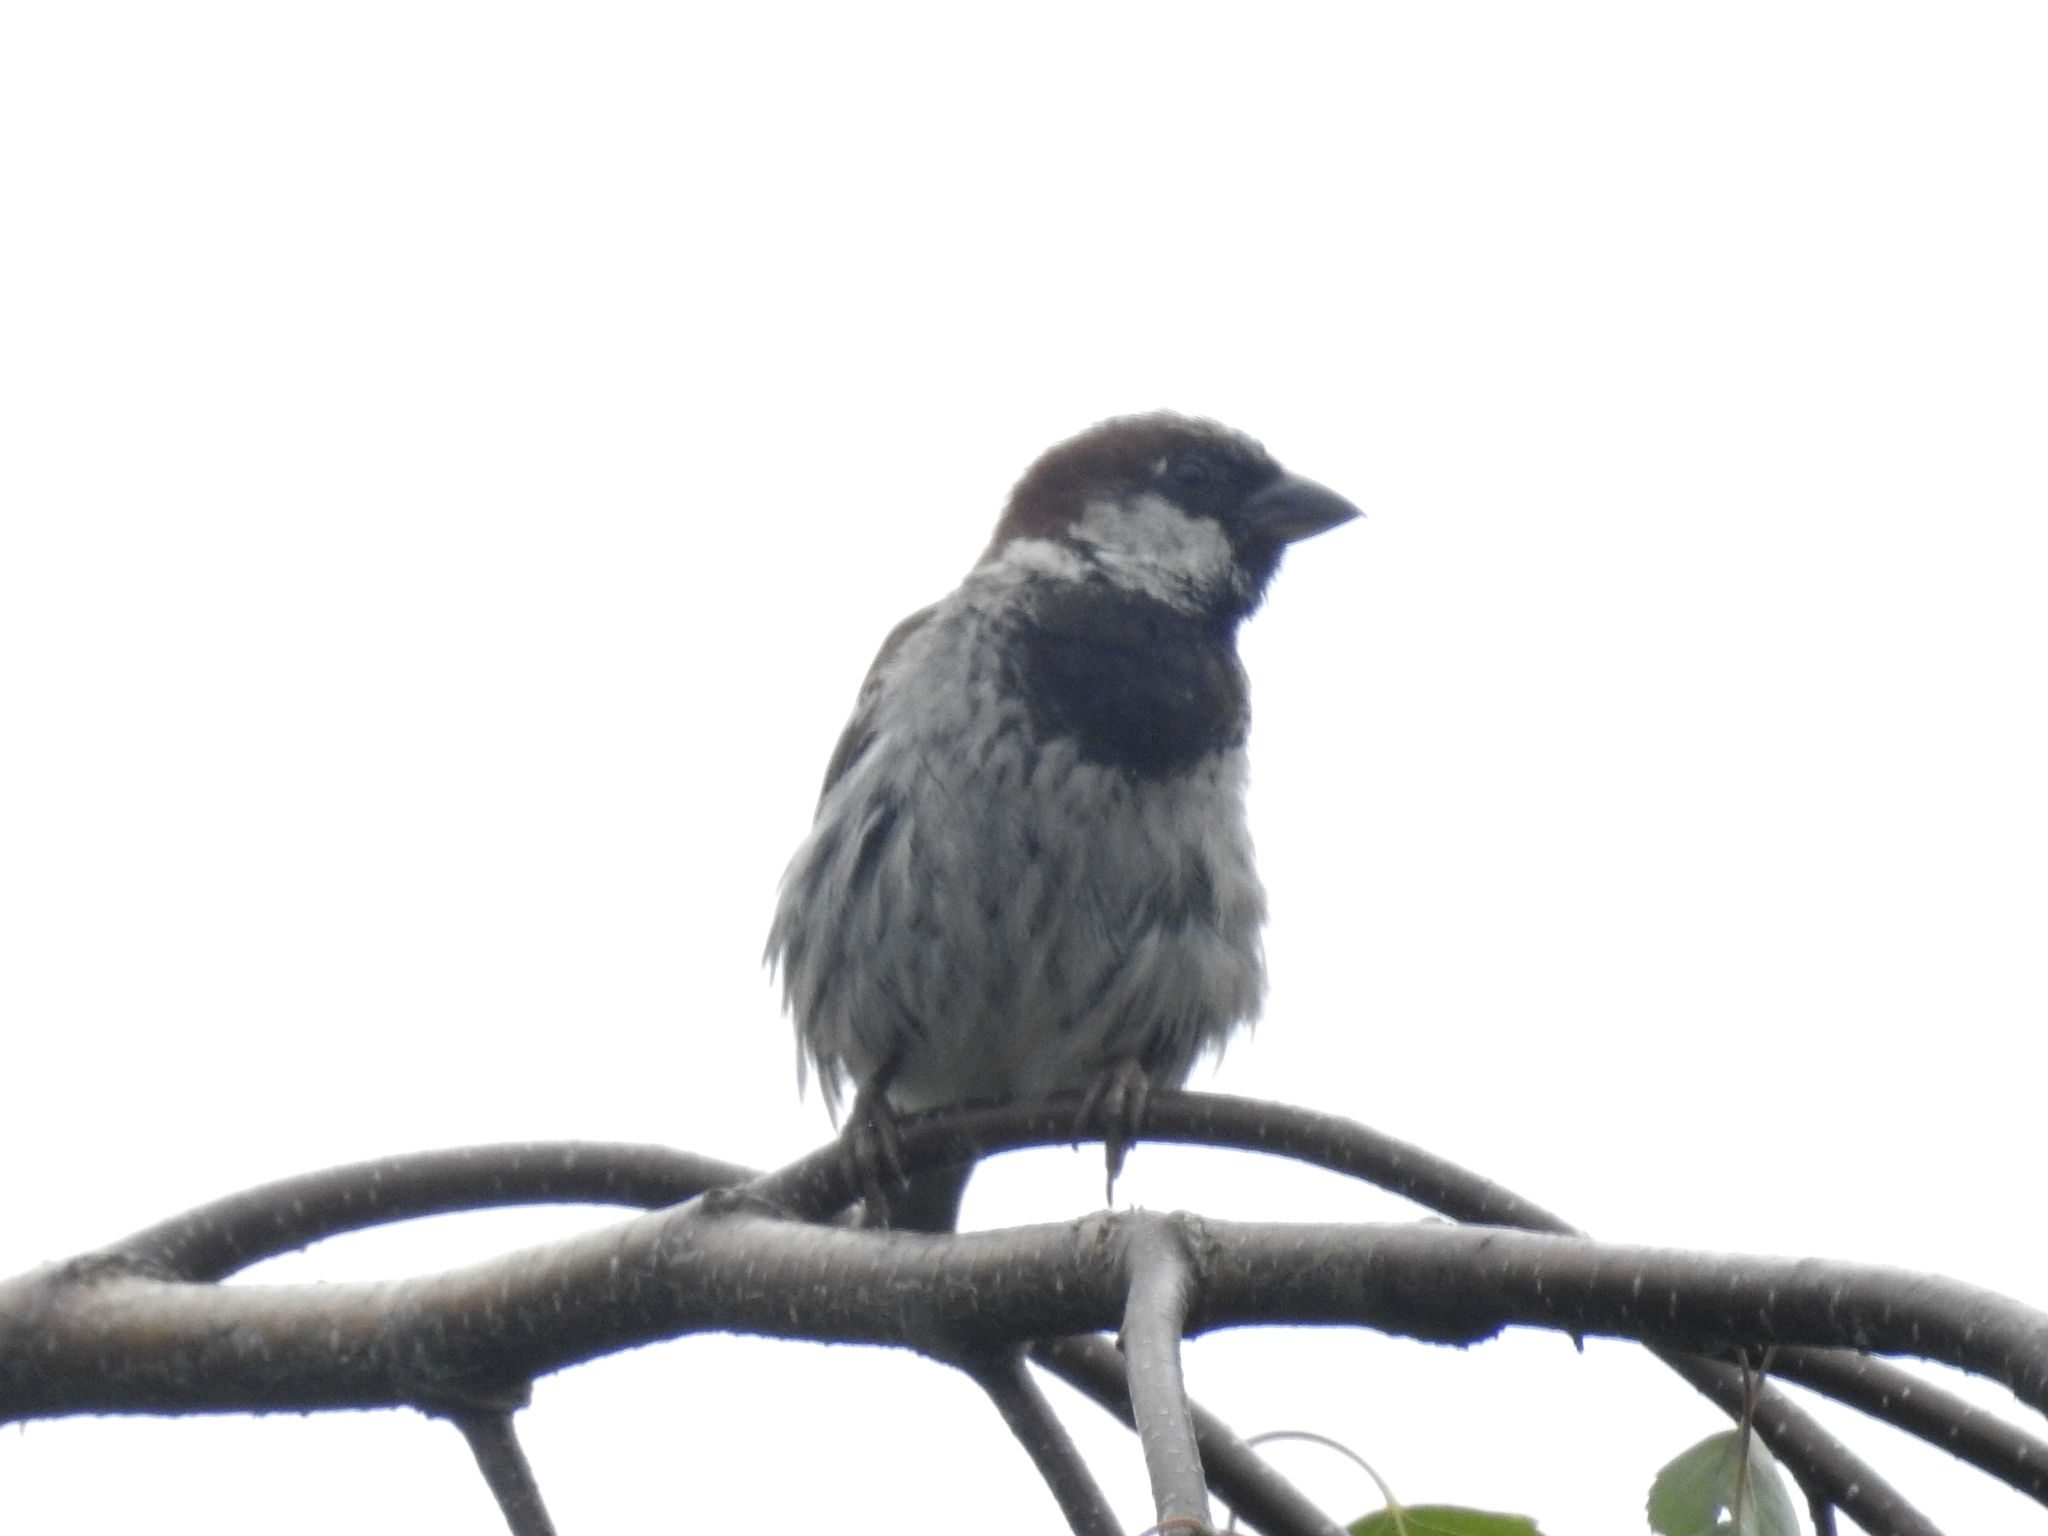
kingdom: Animalia
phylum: Chordata
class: Aves
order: Passeriformes
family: Passeridae
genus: Passer
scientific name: Passer domesticus
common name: House sparrow
